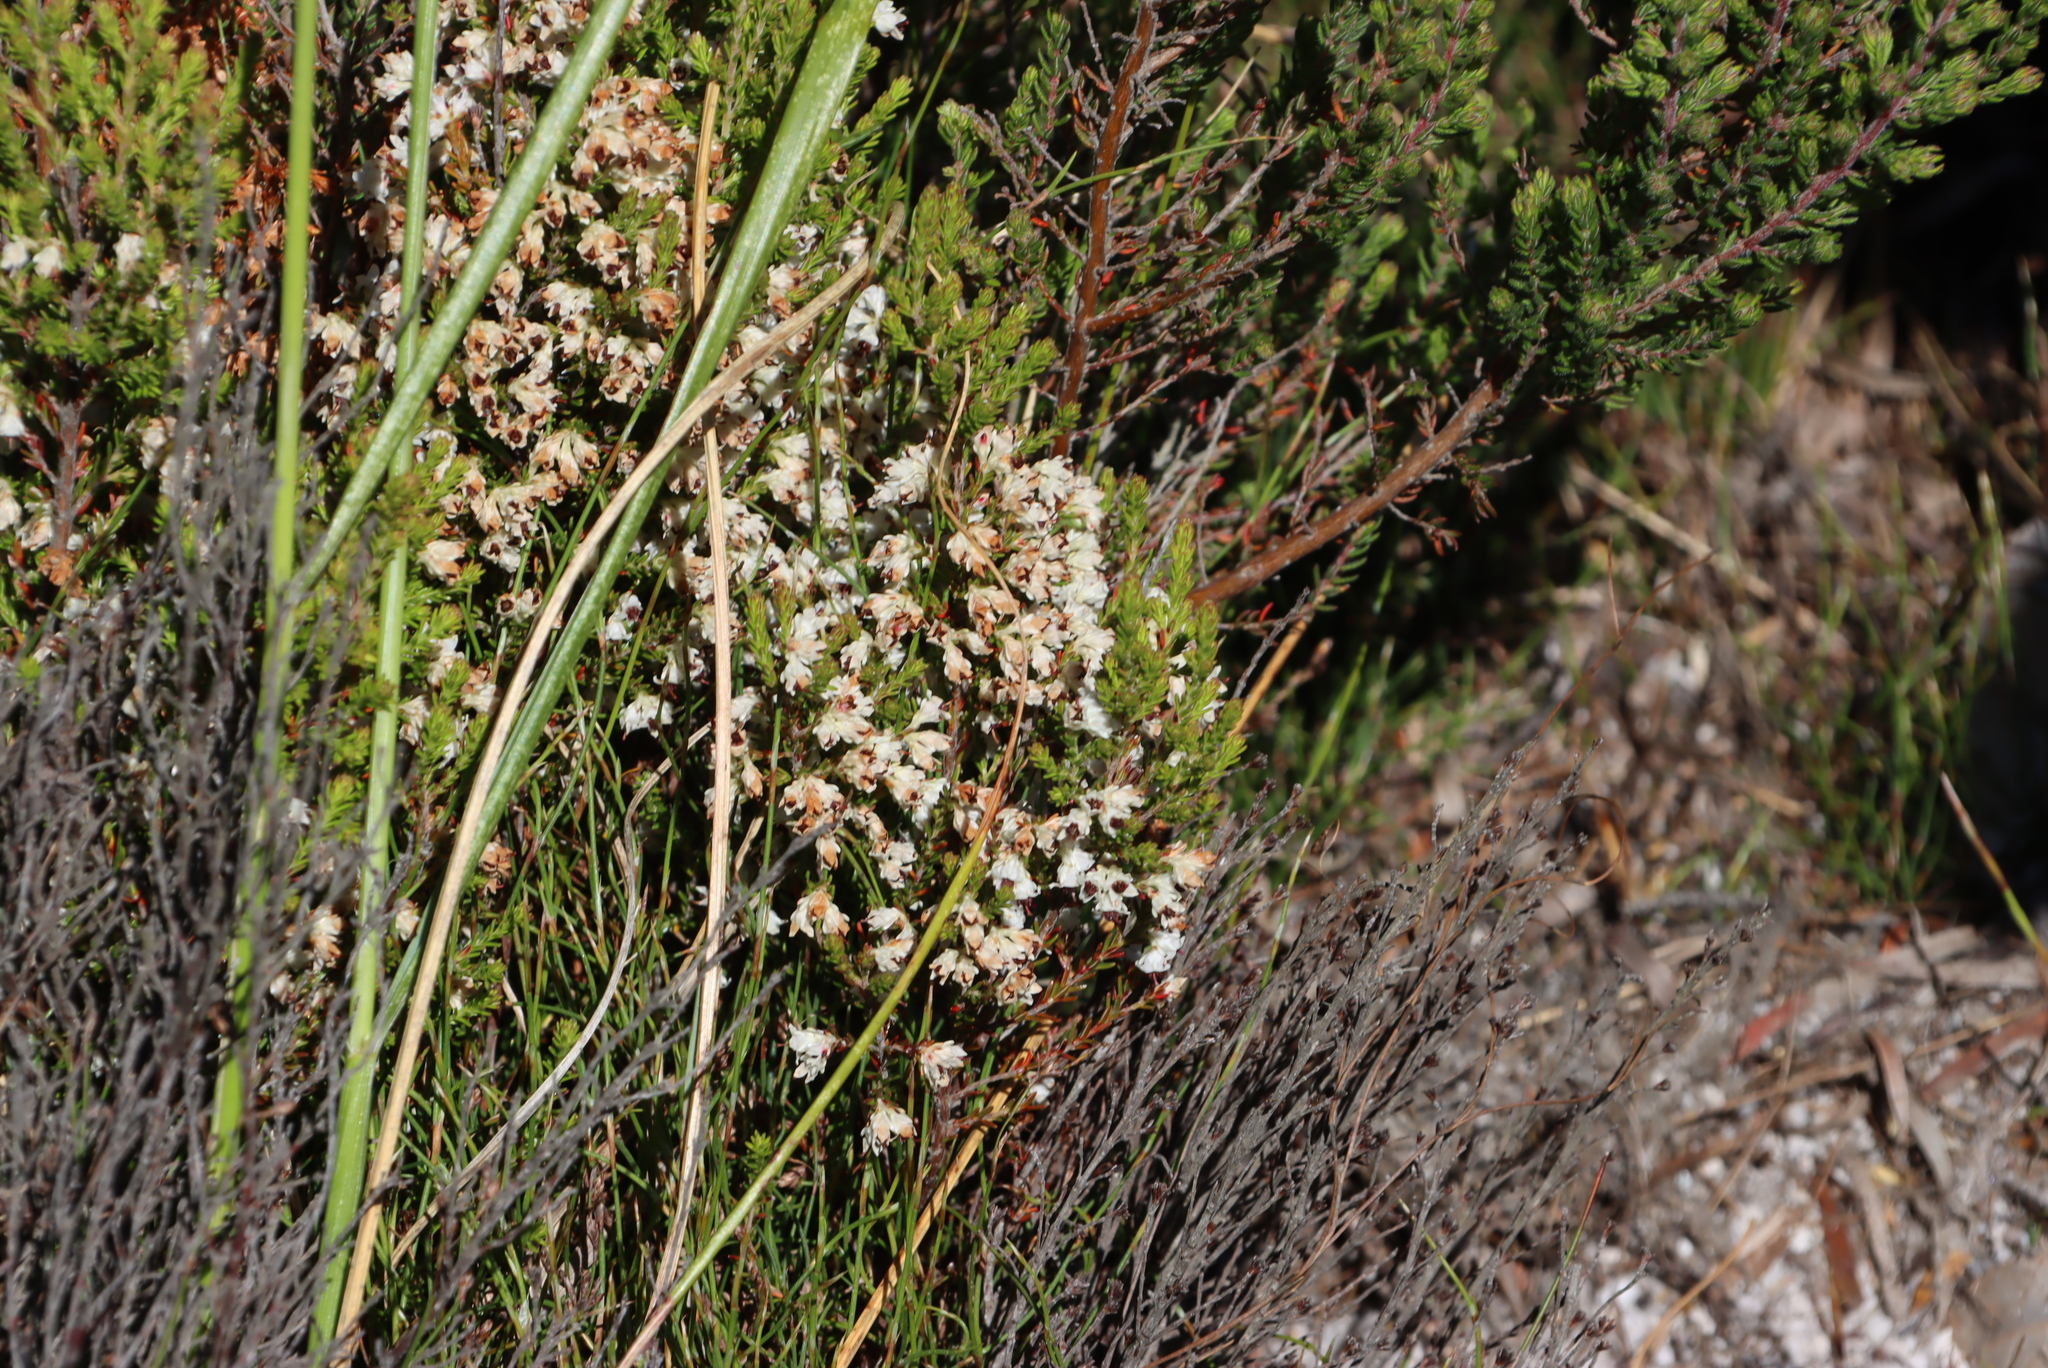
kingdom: Plantae
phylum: Tracheophyta
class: Magnoliopsida
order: Ericales
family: Ericaceae
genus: Erica
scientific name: Erica calycina
